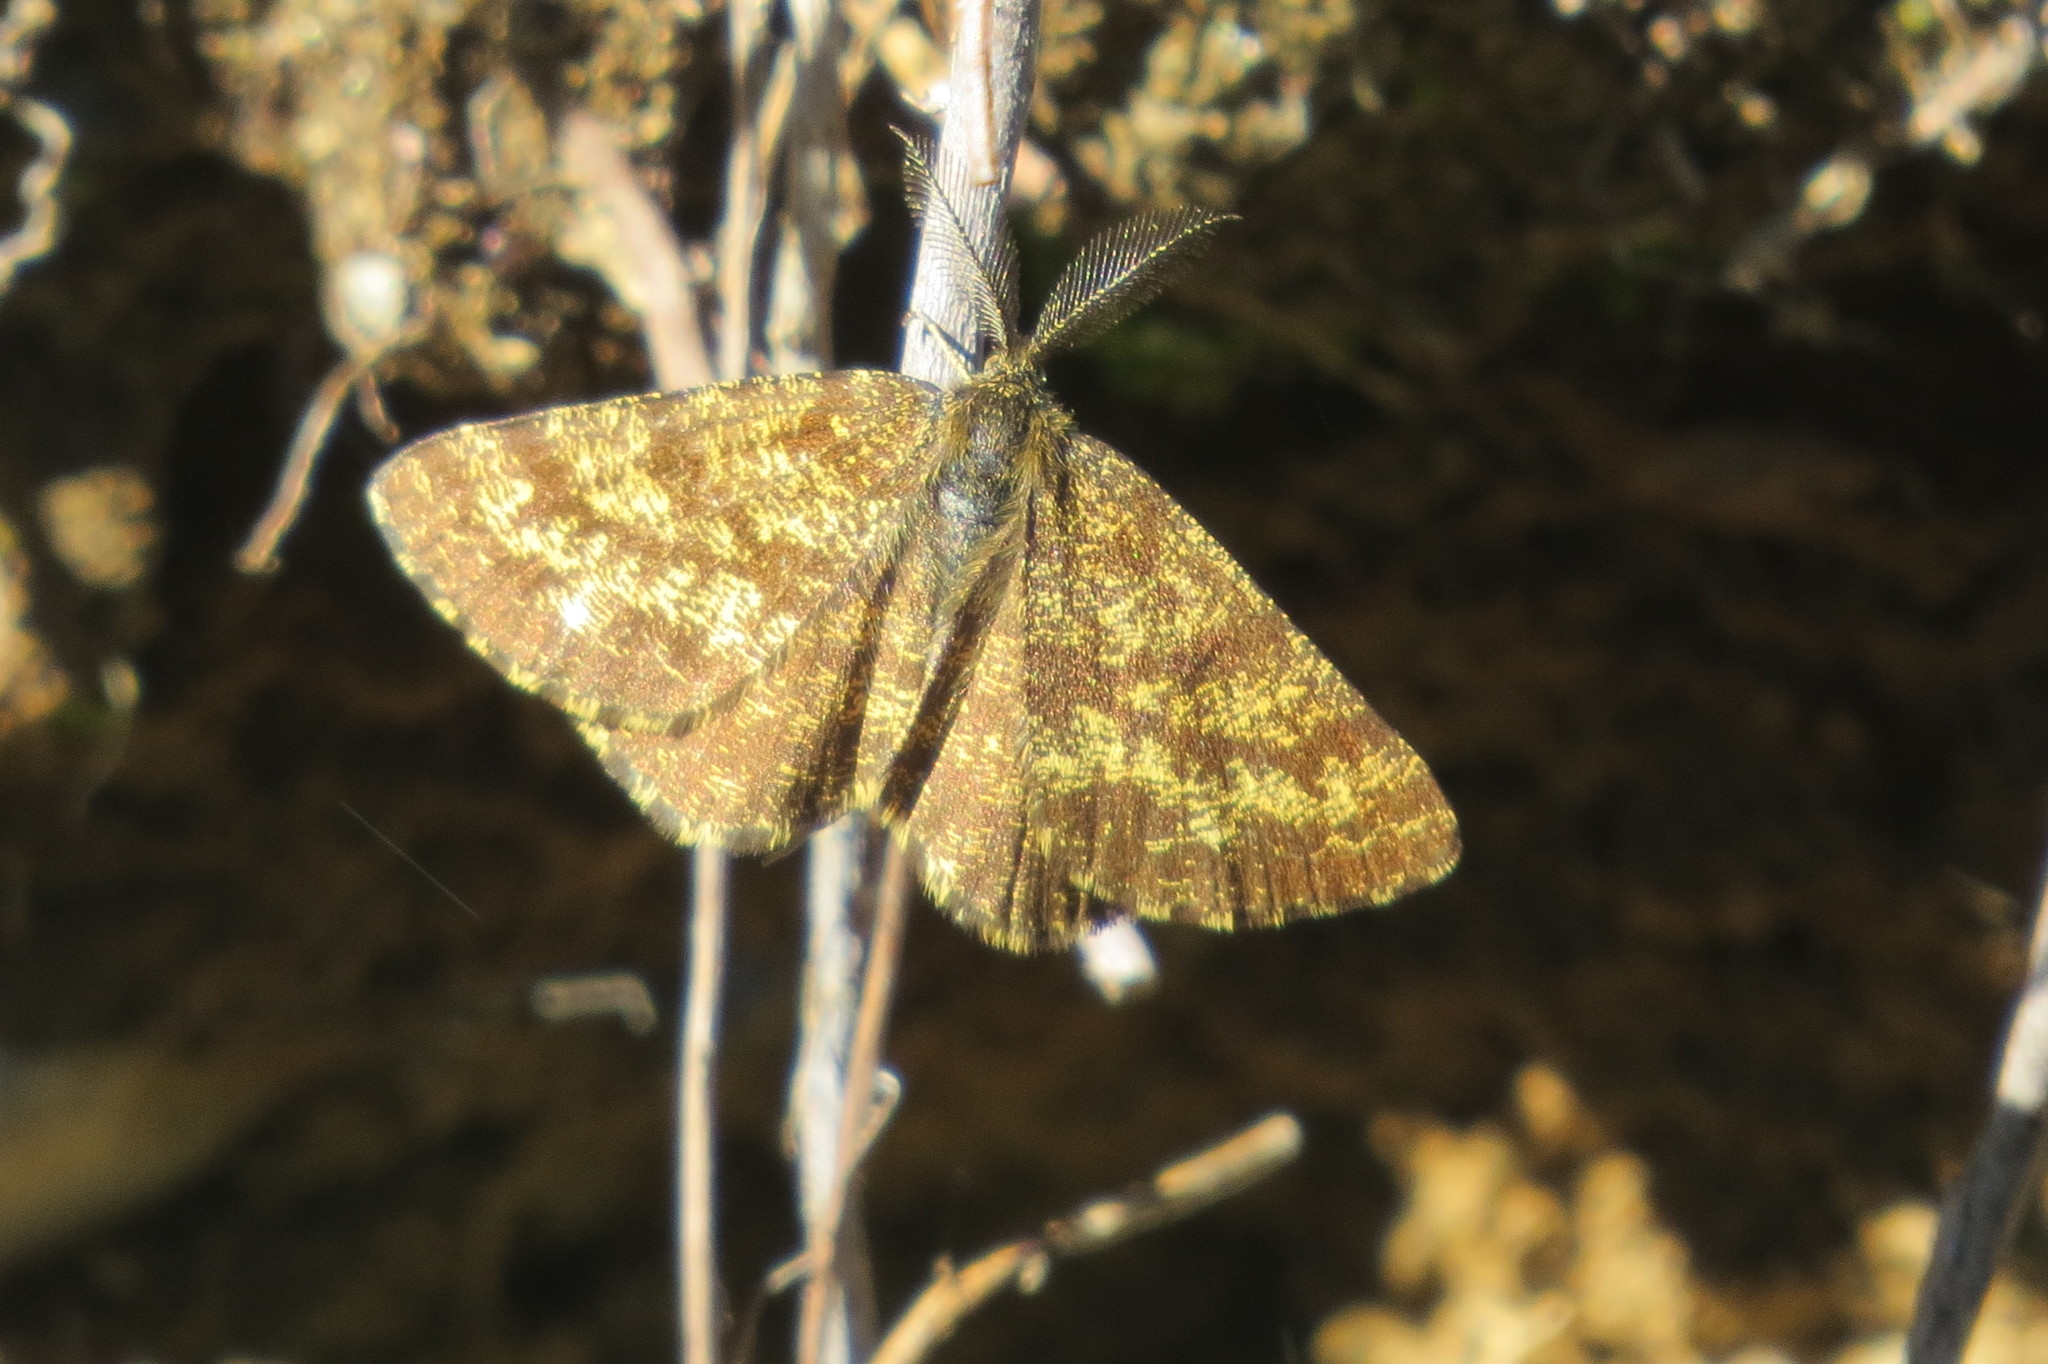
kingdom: Animalia
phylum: Arthropoda
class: Insecta
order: Lepidoptera
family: Geometridae
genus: Ematurga
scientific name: Ematurga atomaria
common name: Common heath
